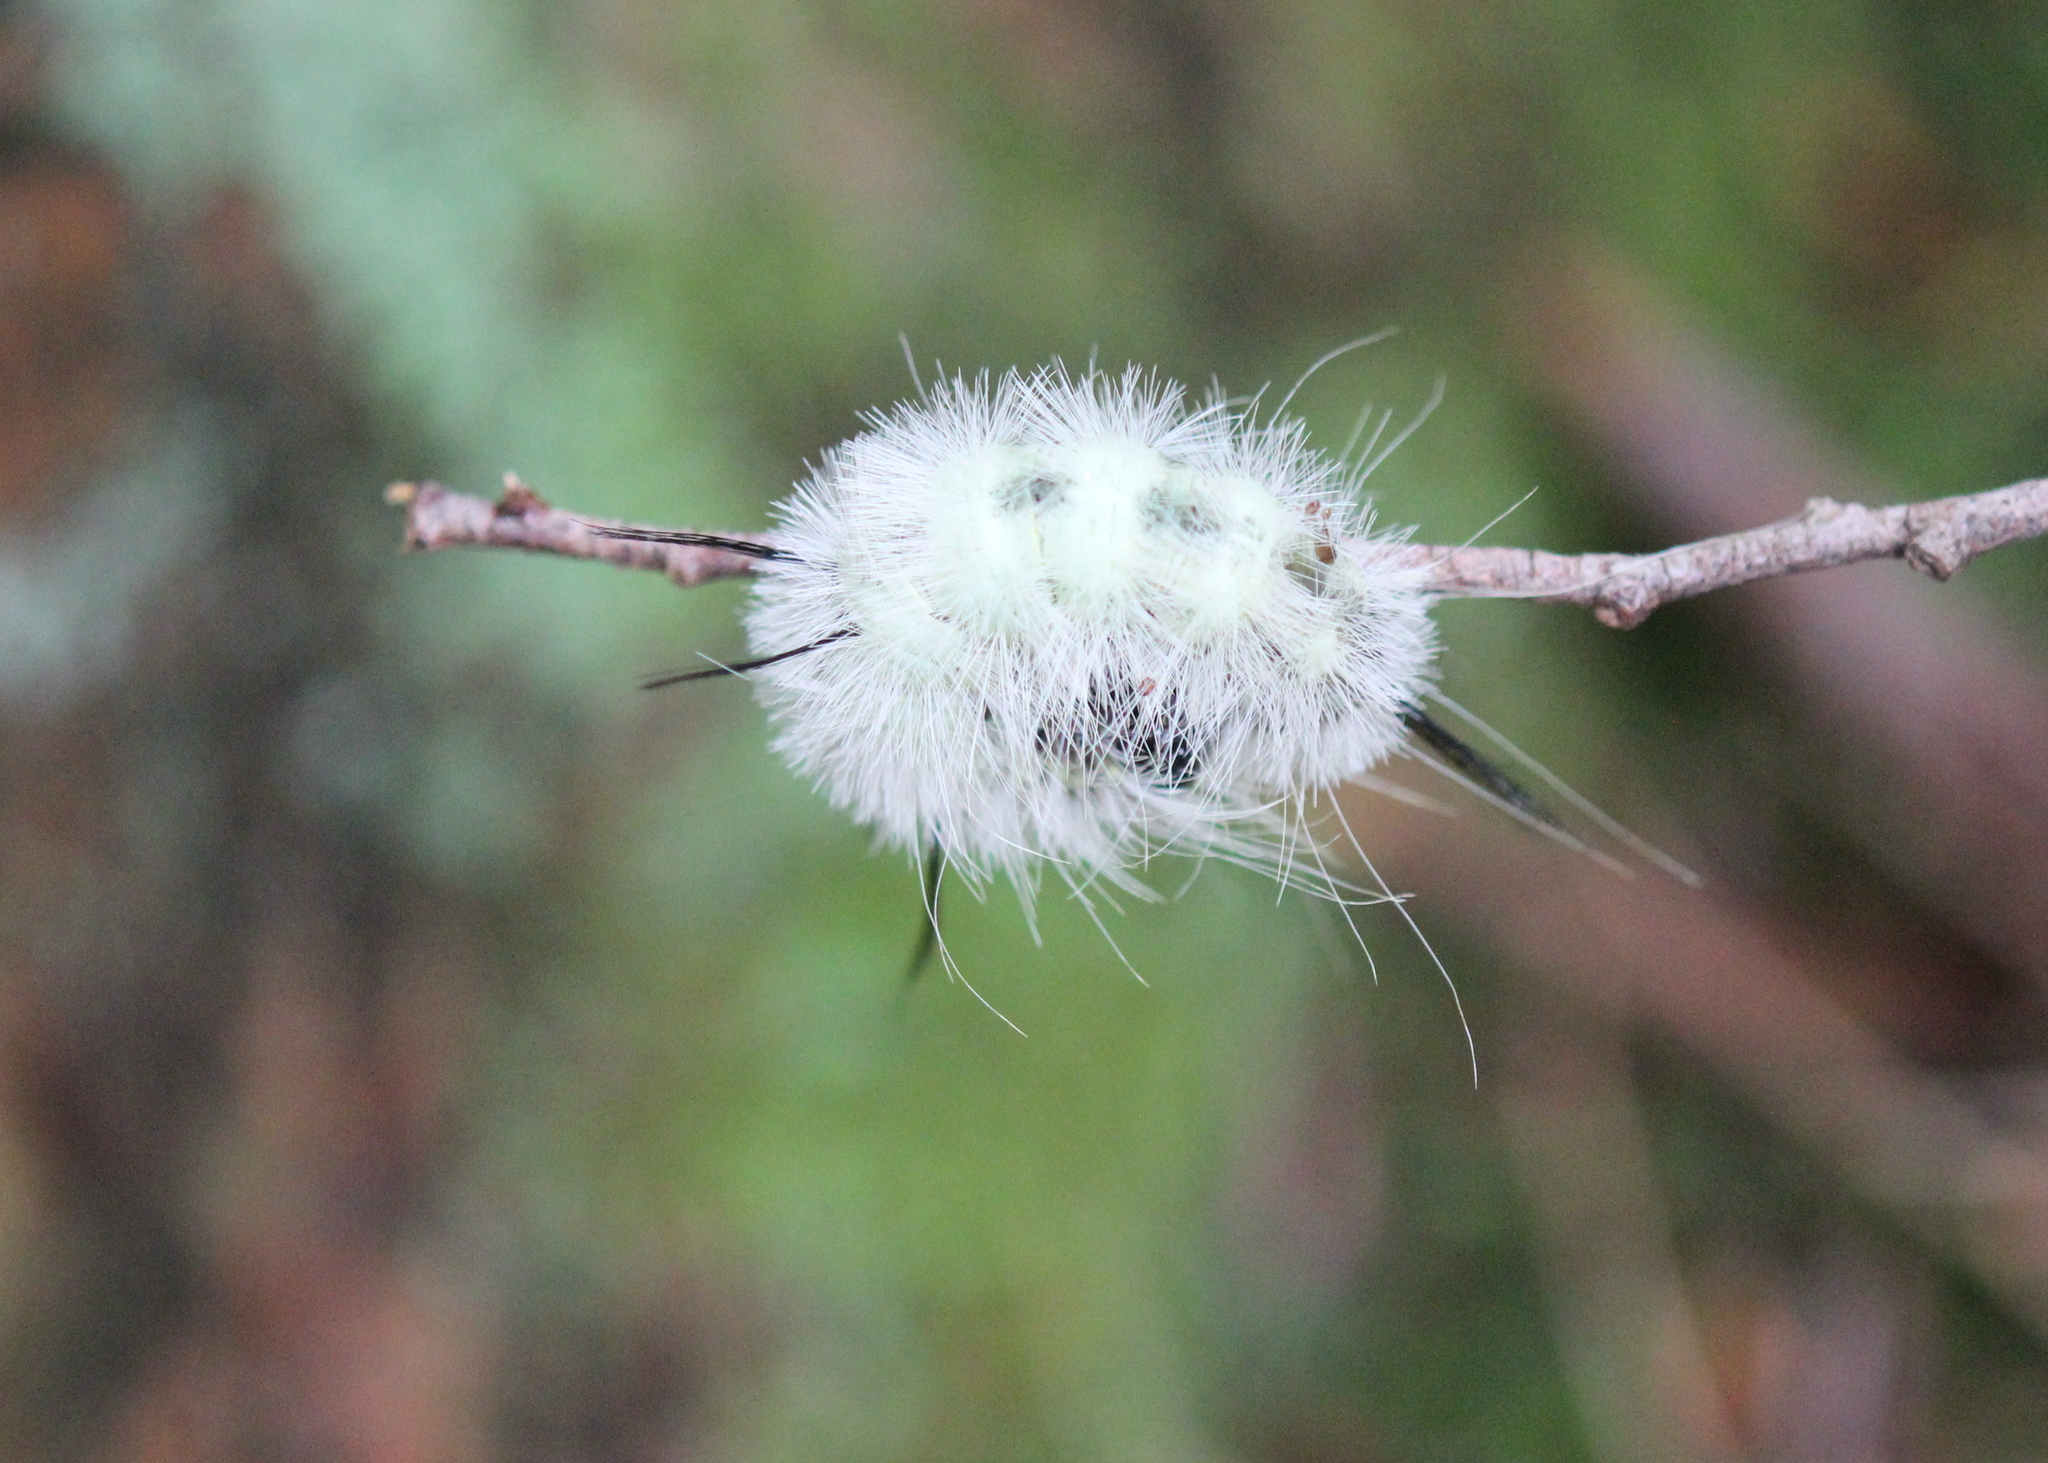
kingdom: Animalia
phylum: Arthropoda
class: Insecta
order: Lepidoptera
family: Noctuidae
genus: Acronicta
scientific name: Acronicta americana
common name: American dagger
